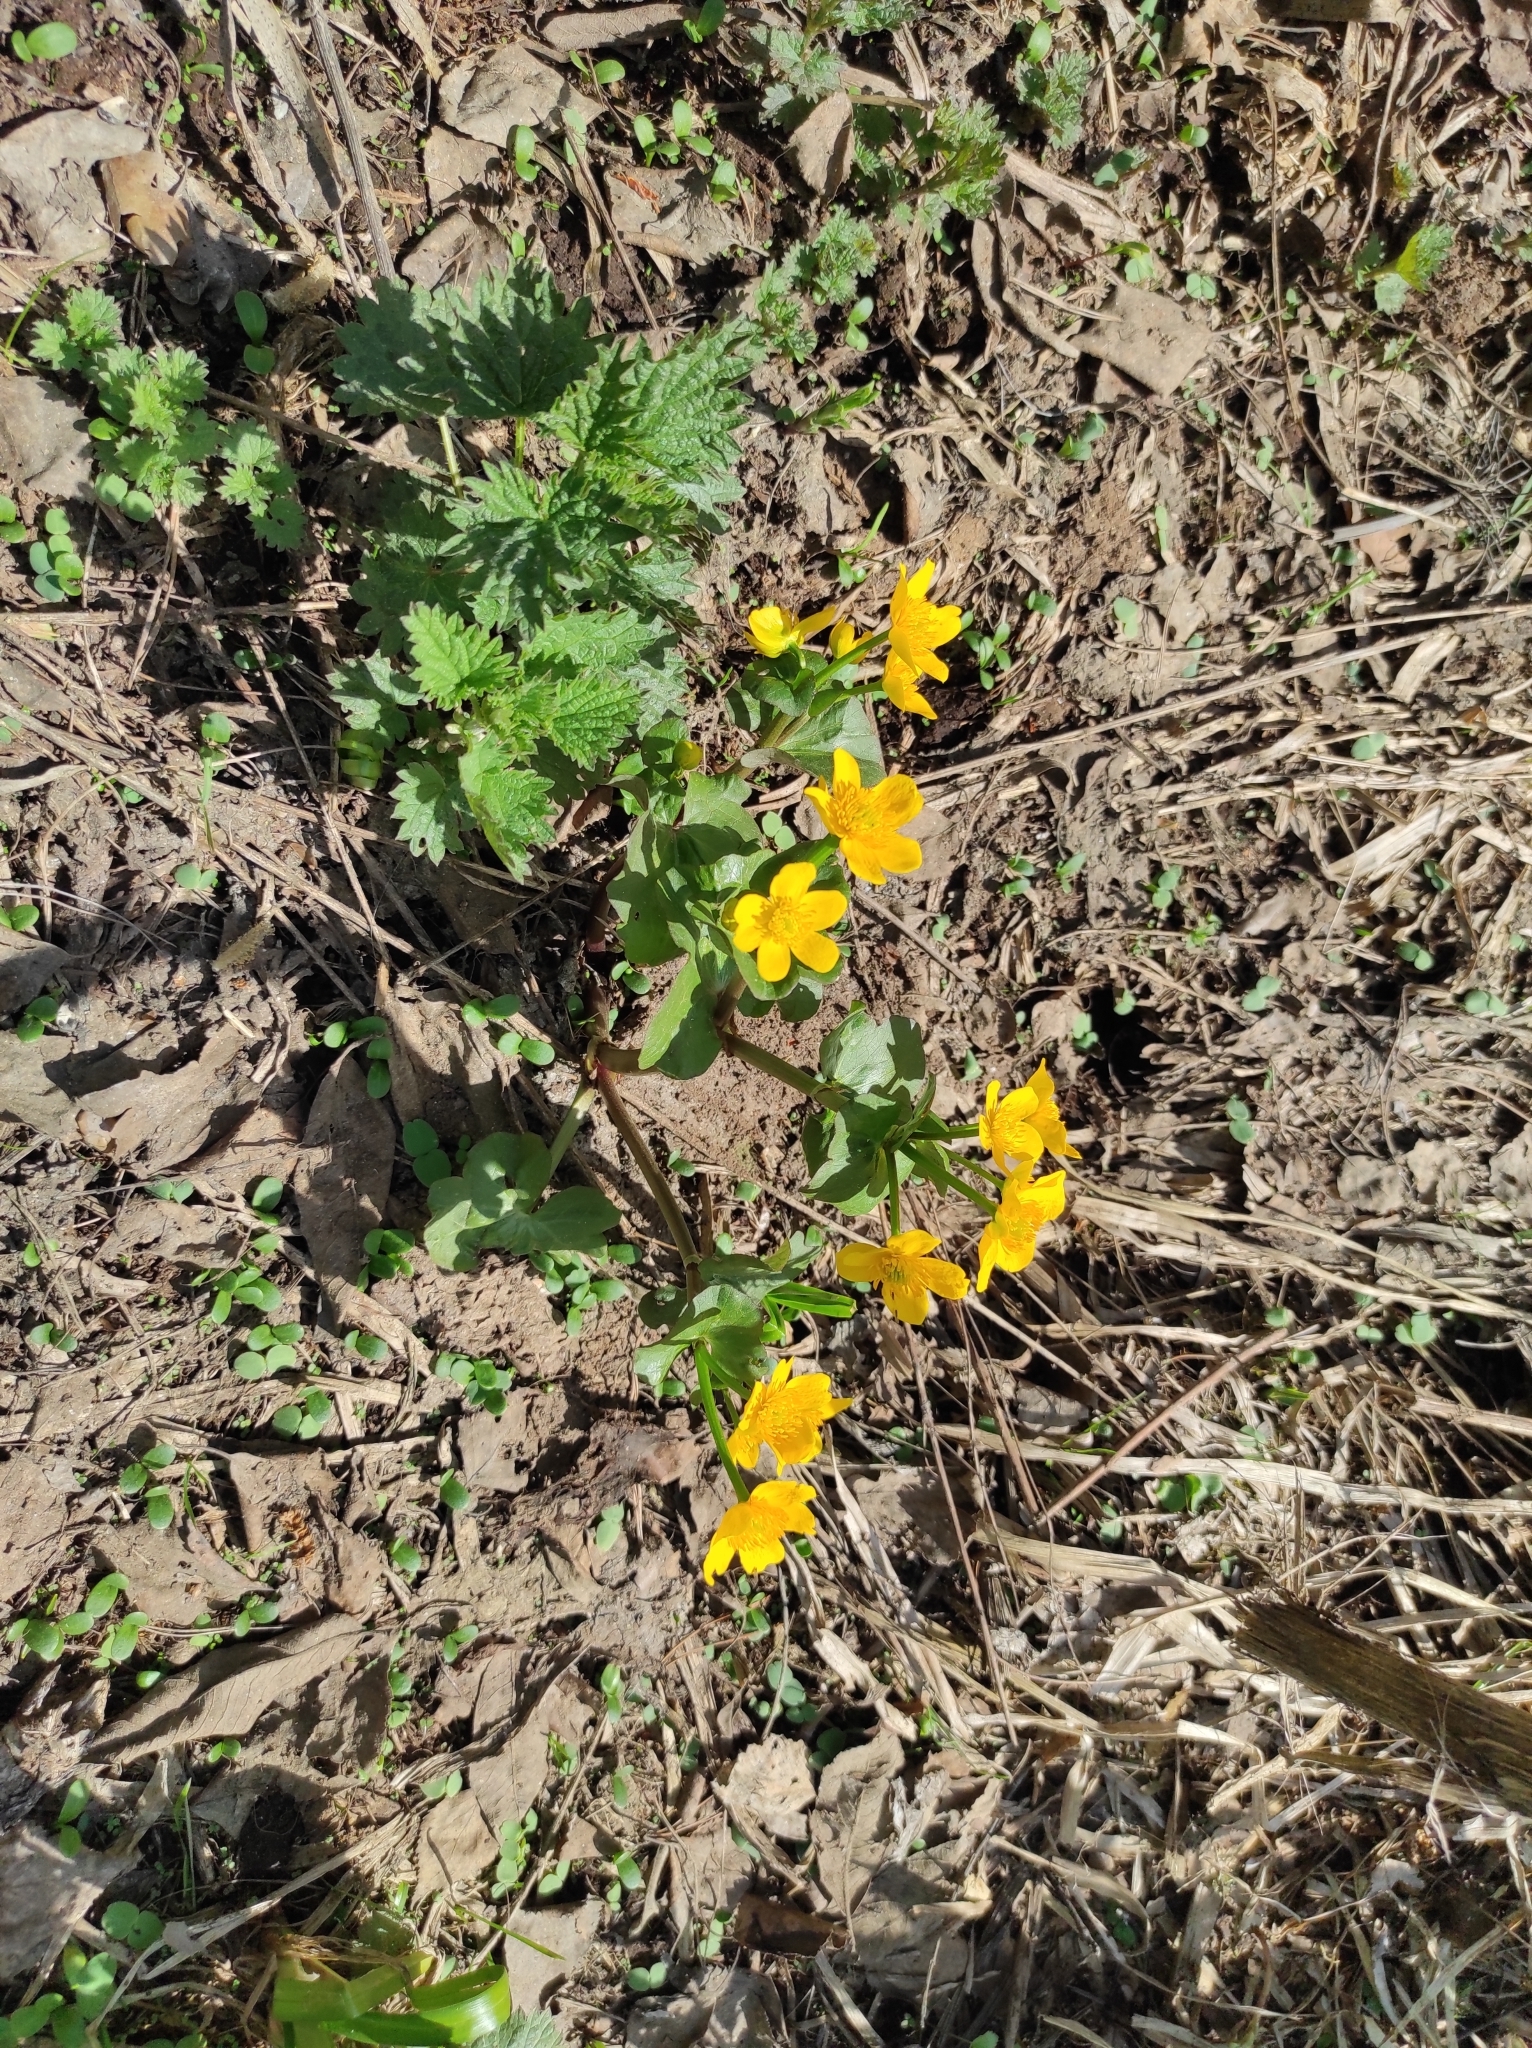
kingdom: Plantae
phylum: Tracheophyta
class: Magnoliopsida
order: Ranunculales
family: Ranunculaceae
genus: Caltha
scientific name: Caltha palustris
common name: Marsh marigold
